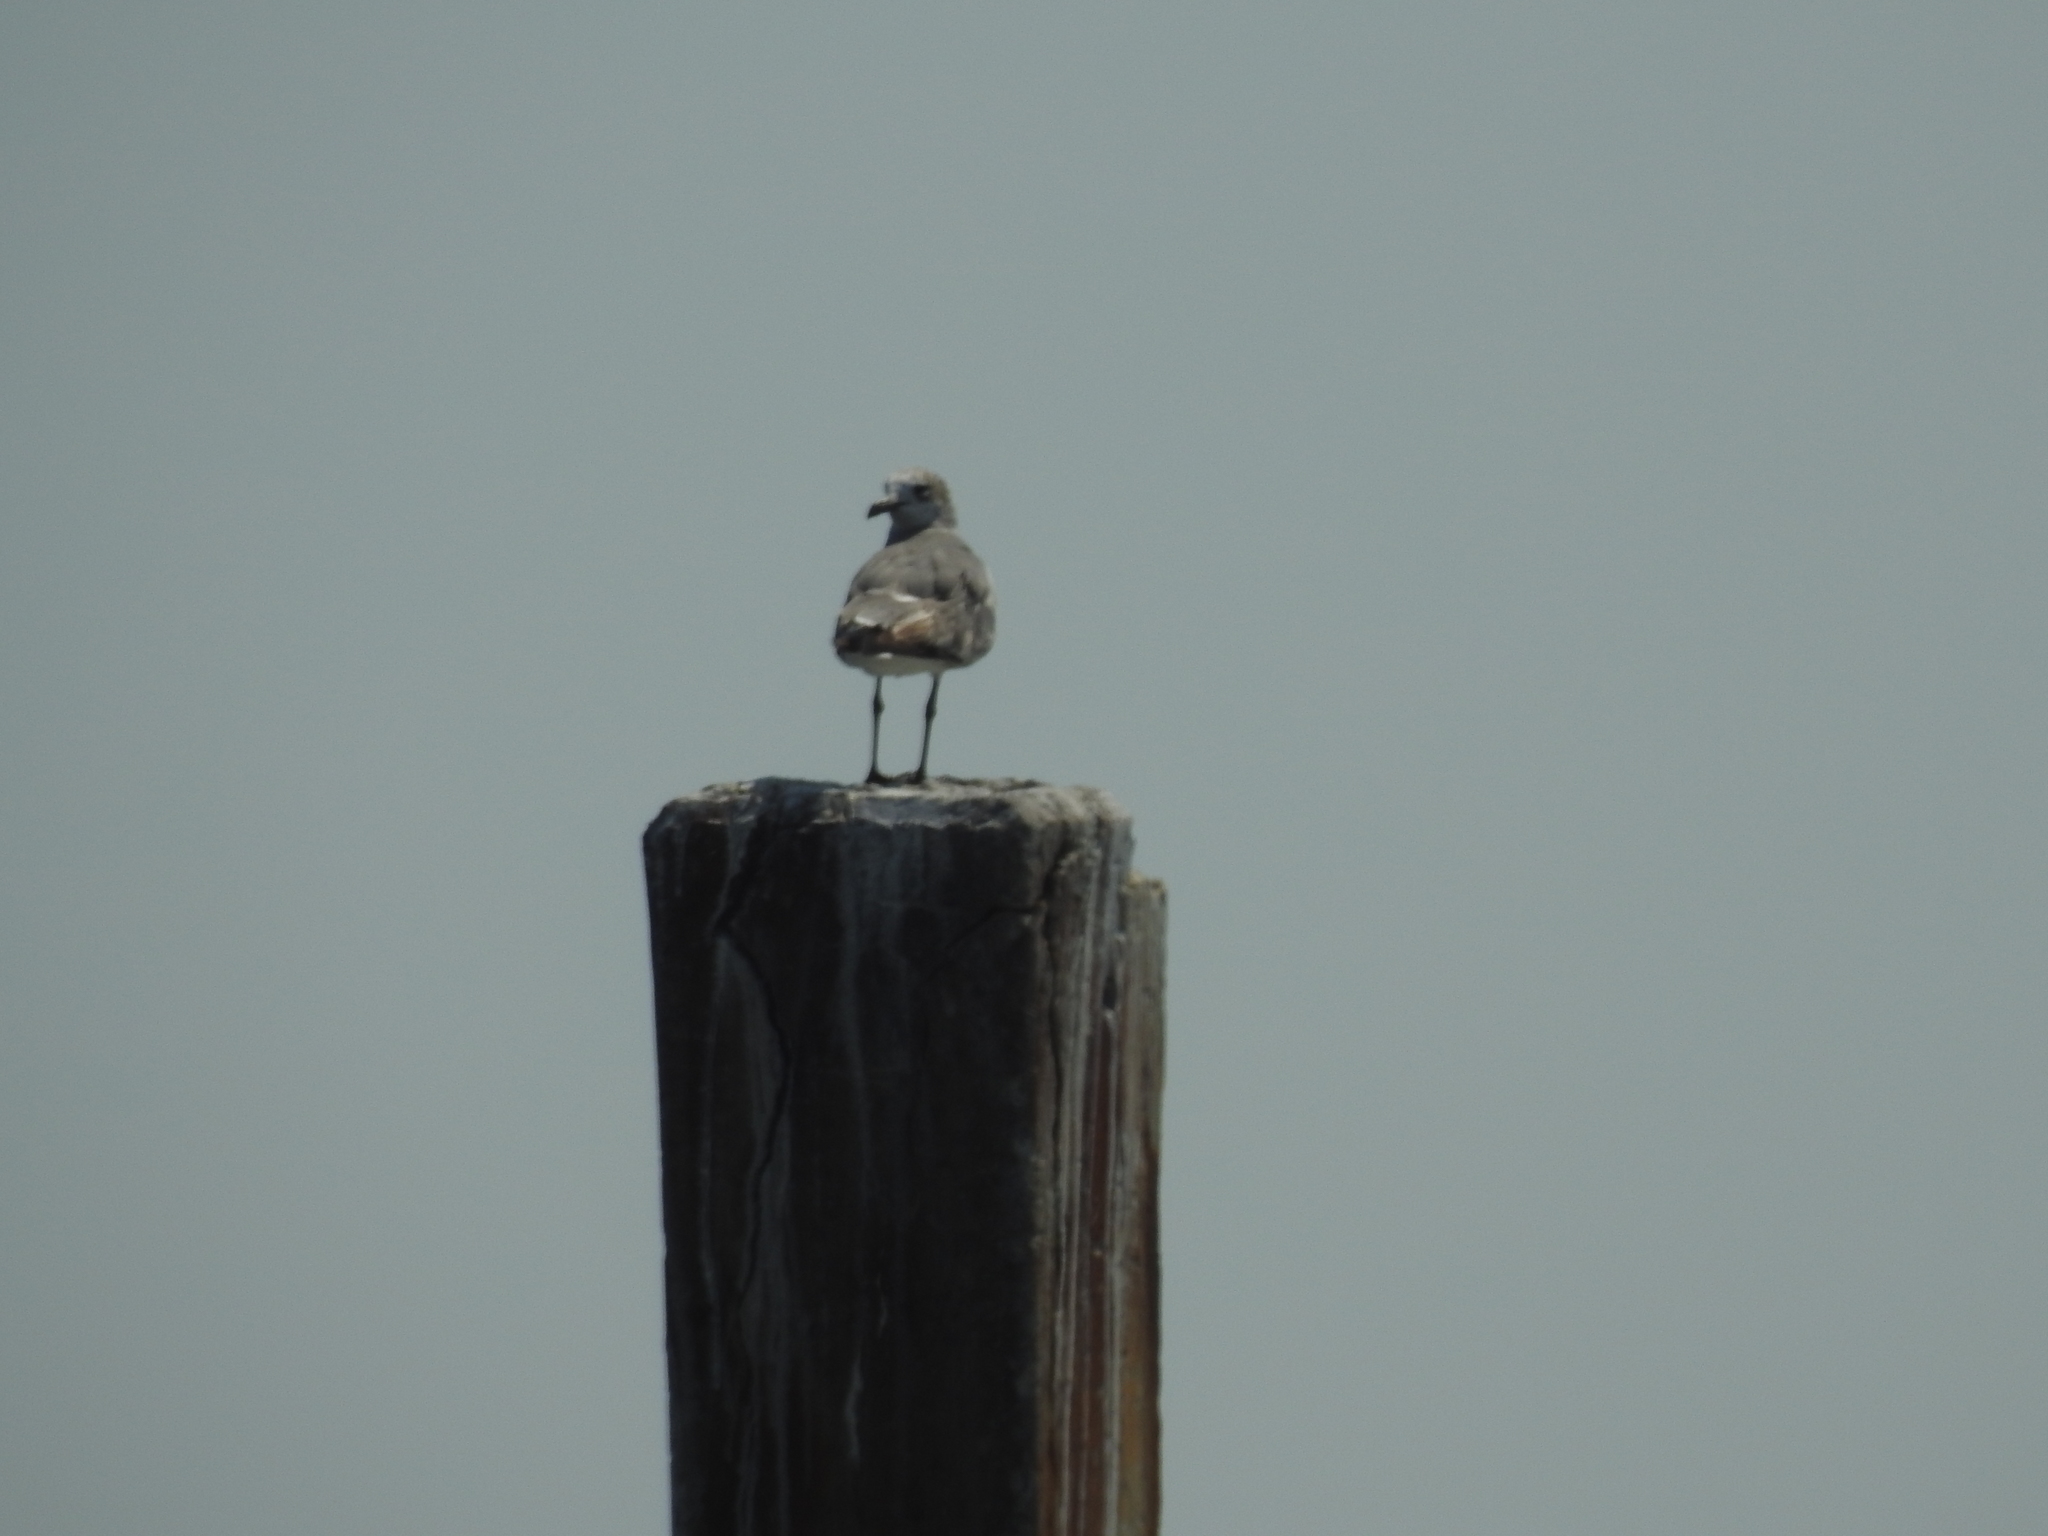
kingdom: Animalia
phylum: Chordata
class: Aves
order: Charadriiformes
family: Laridae
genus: Leucophaeus
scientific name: Leucophaeus atricilla
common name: Laughing gull
